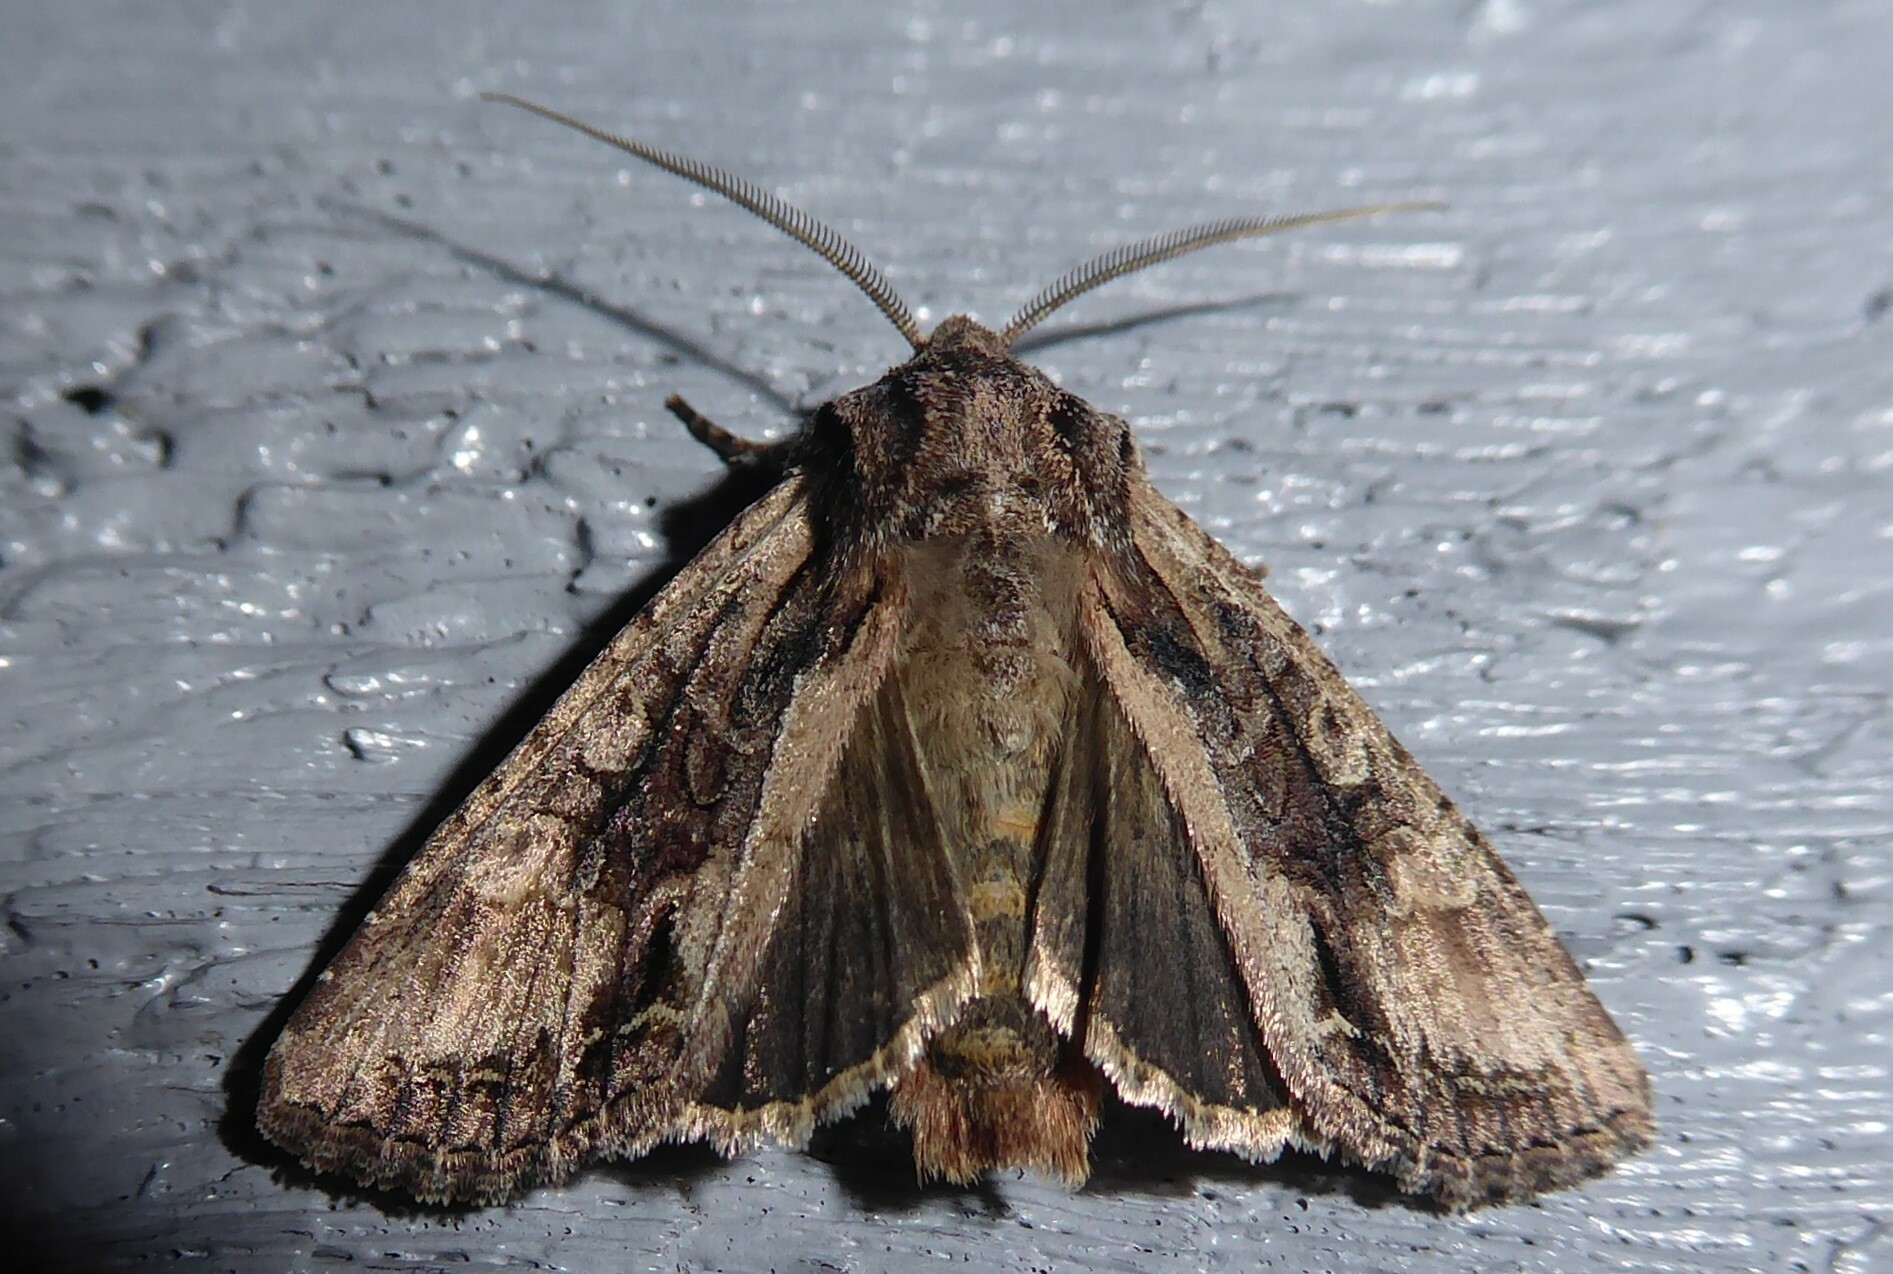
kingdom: Animalia
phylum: Arthropoda
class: Insecta
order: Lepidoptera
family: Noctuidae
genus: Ichneutica
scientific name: Ichneutica mutans
